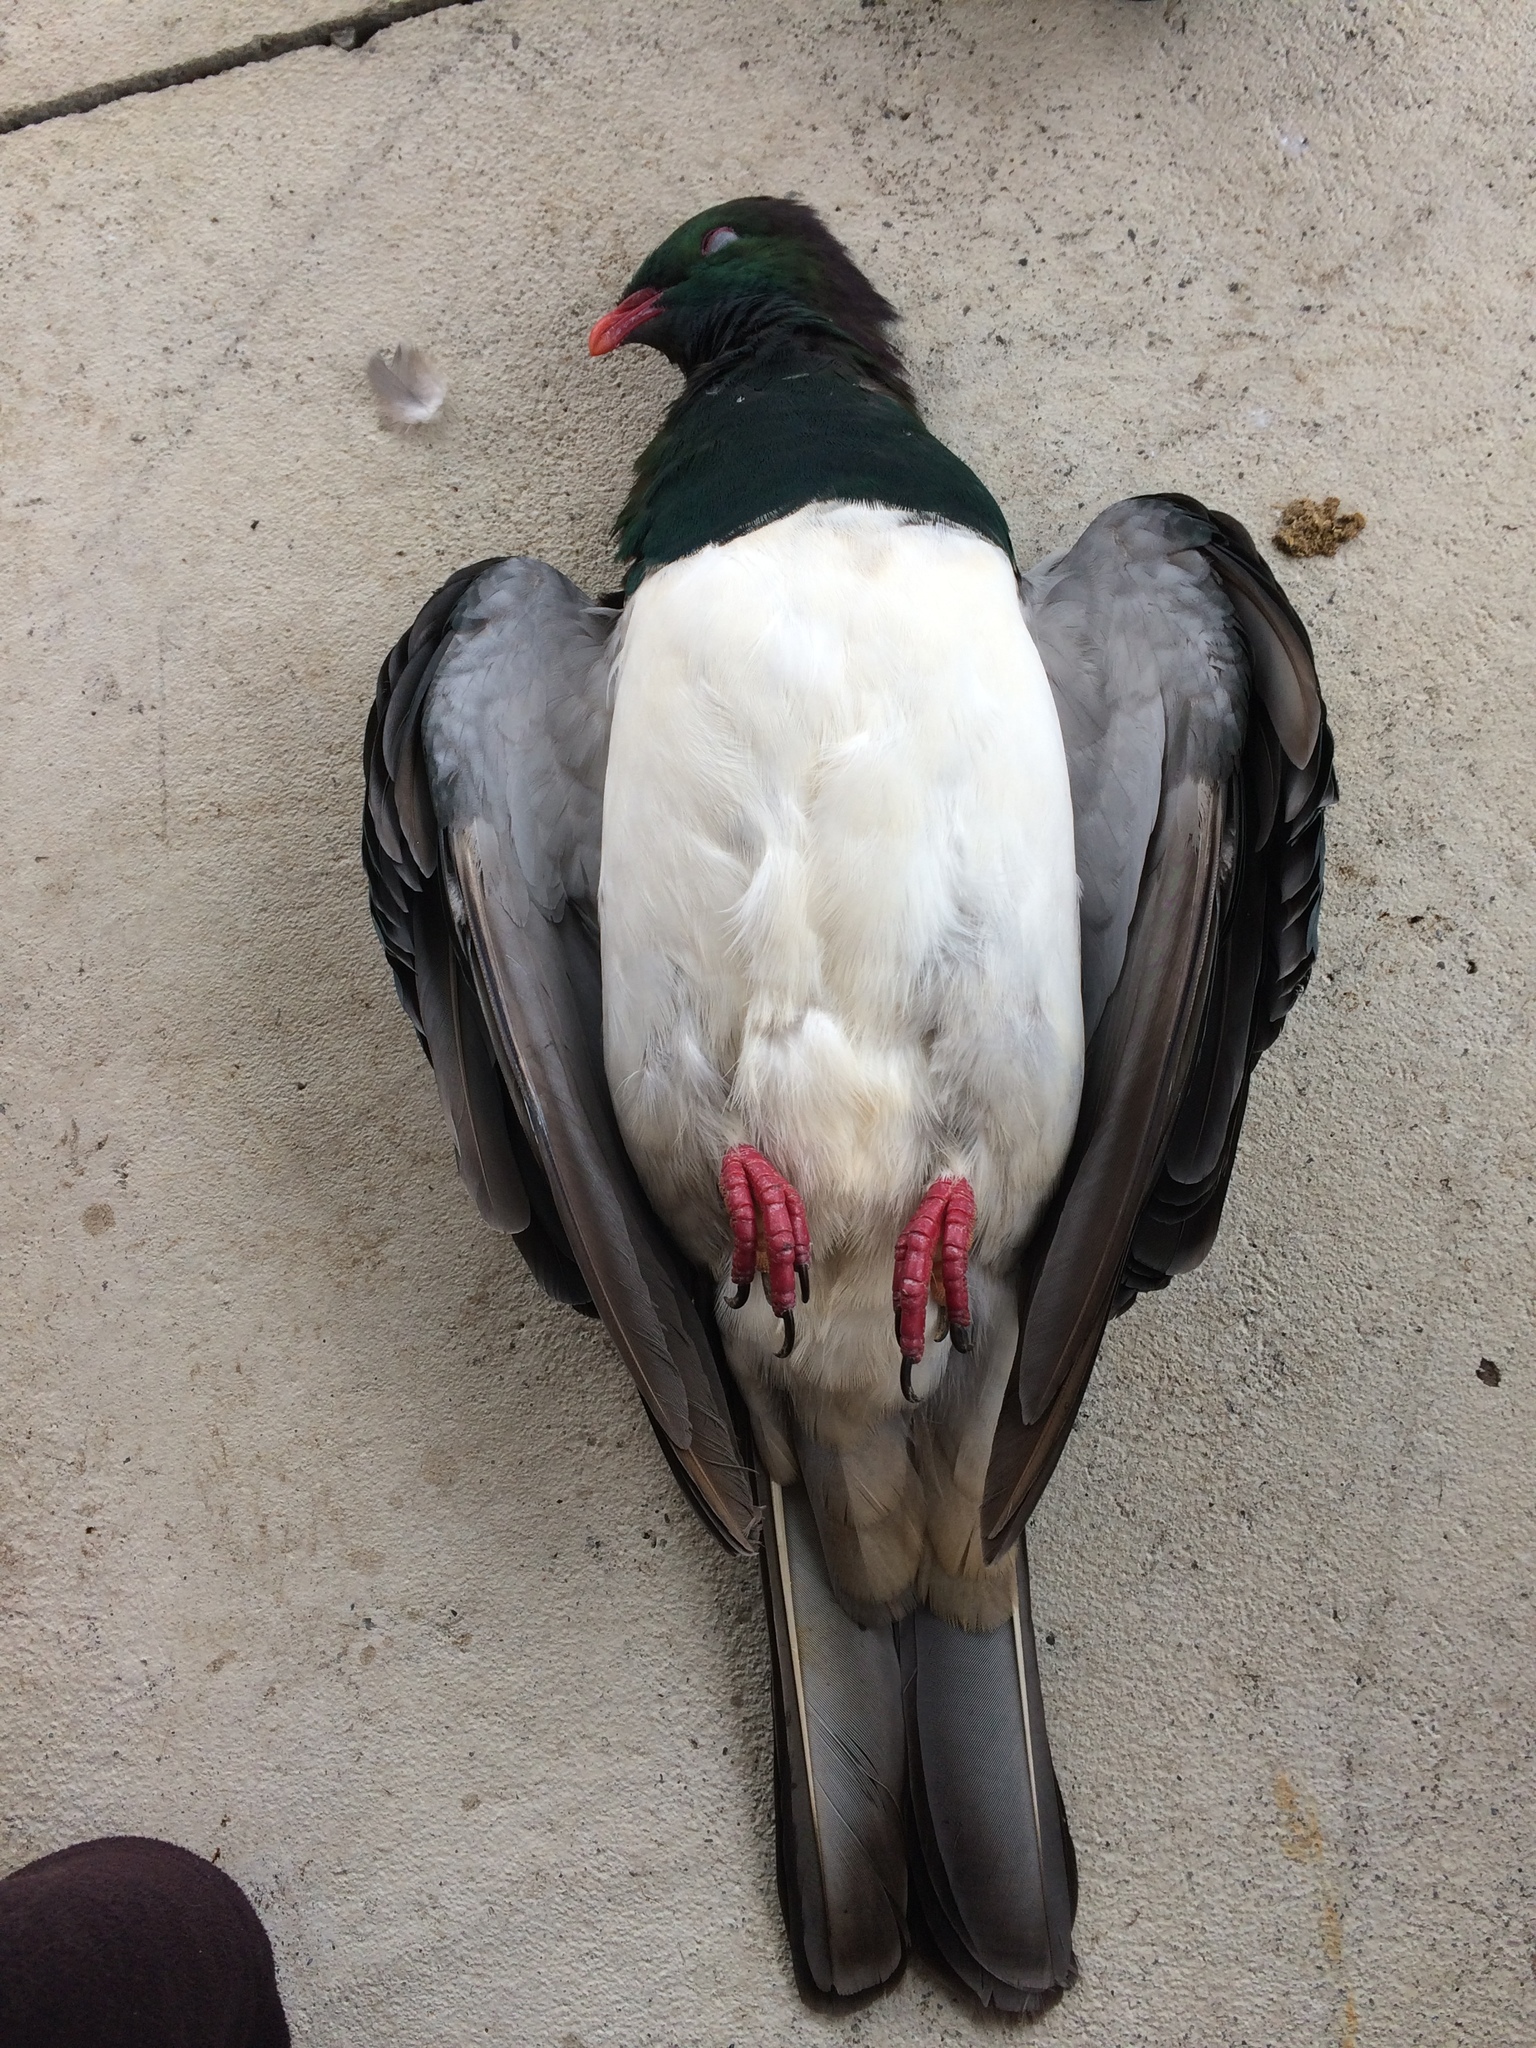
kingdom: Animalia
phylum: Chordata
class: Aves
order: Columbiformes
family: Columbidae
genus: Hemiphaga
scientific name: Hemiphaga novaeseelandiae
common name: New zealand pigeon
